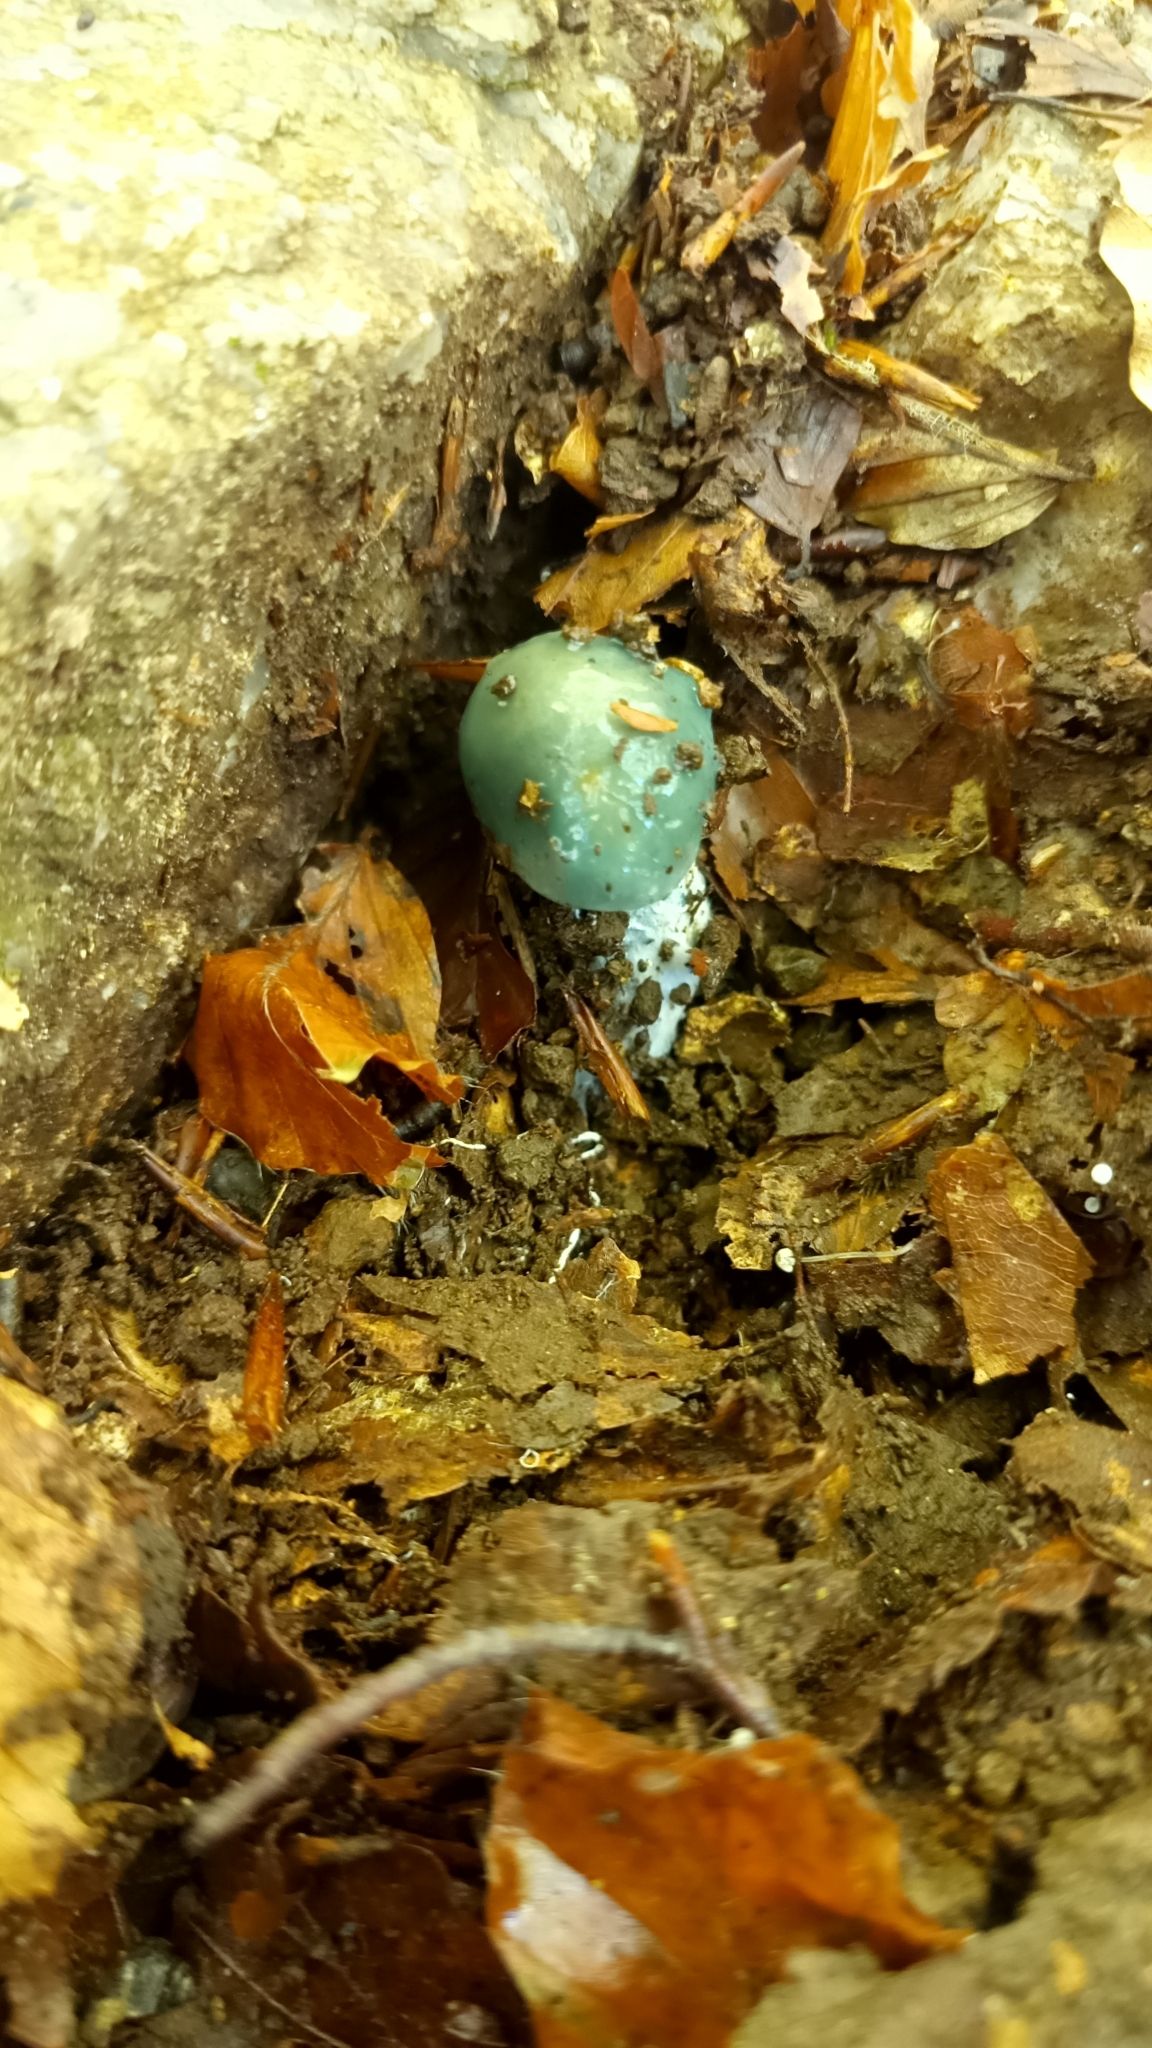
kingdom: Fungi
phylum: Basidiomycota
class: Agaricomycetes
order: Agaricales
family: Strophariaceae
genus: Stropharia
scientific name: Stropharia aeruginosa
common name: Verdigris roundhead
